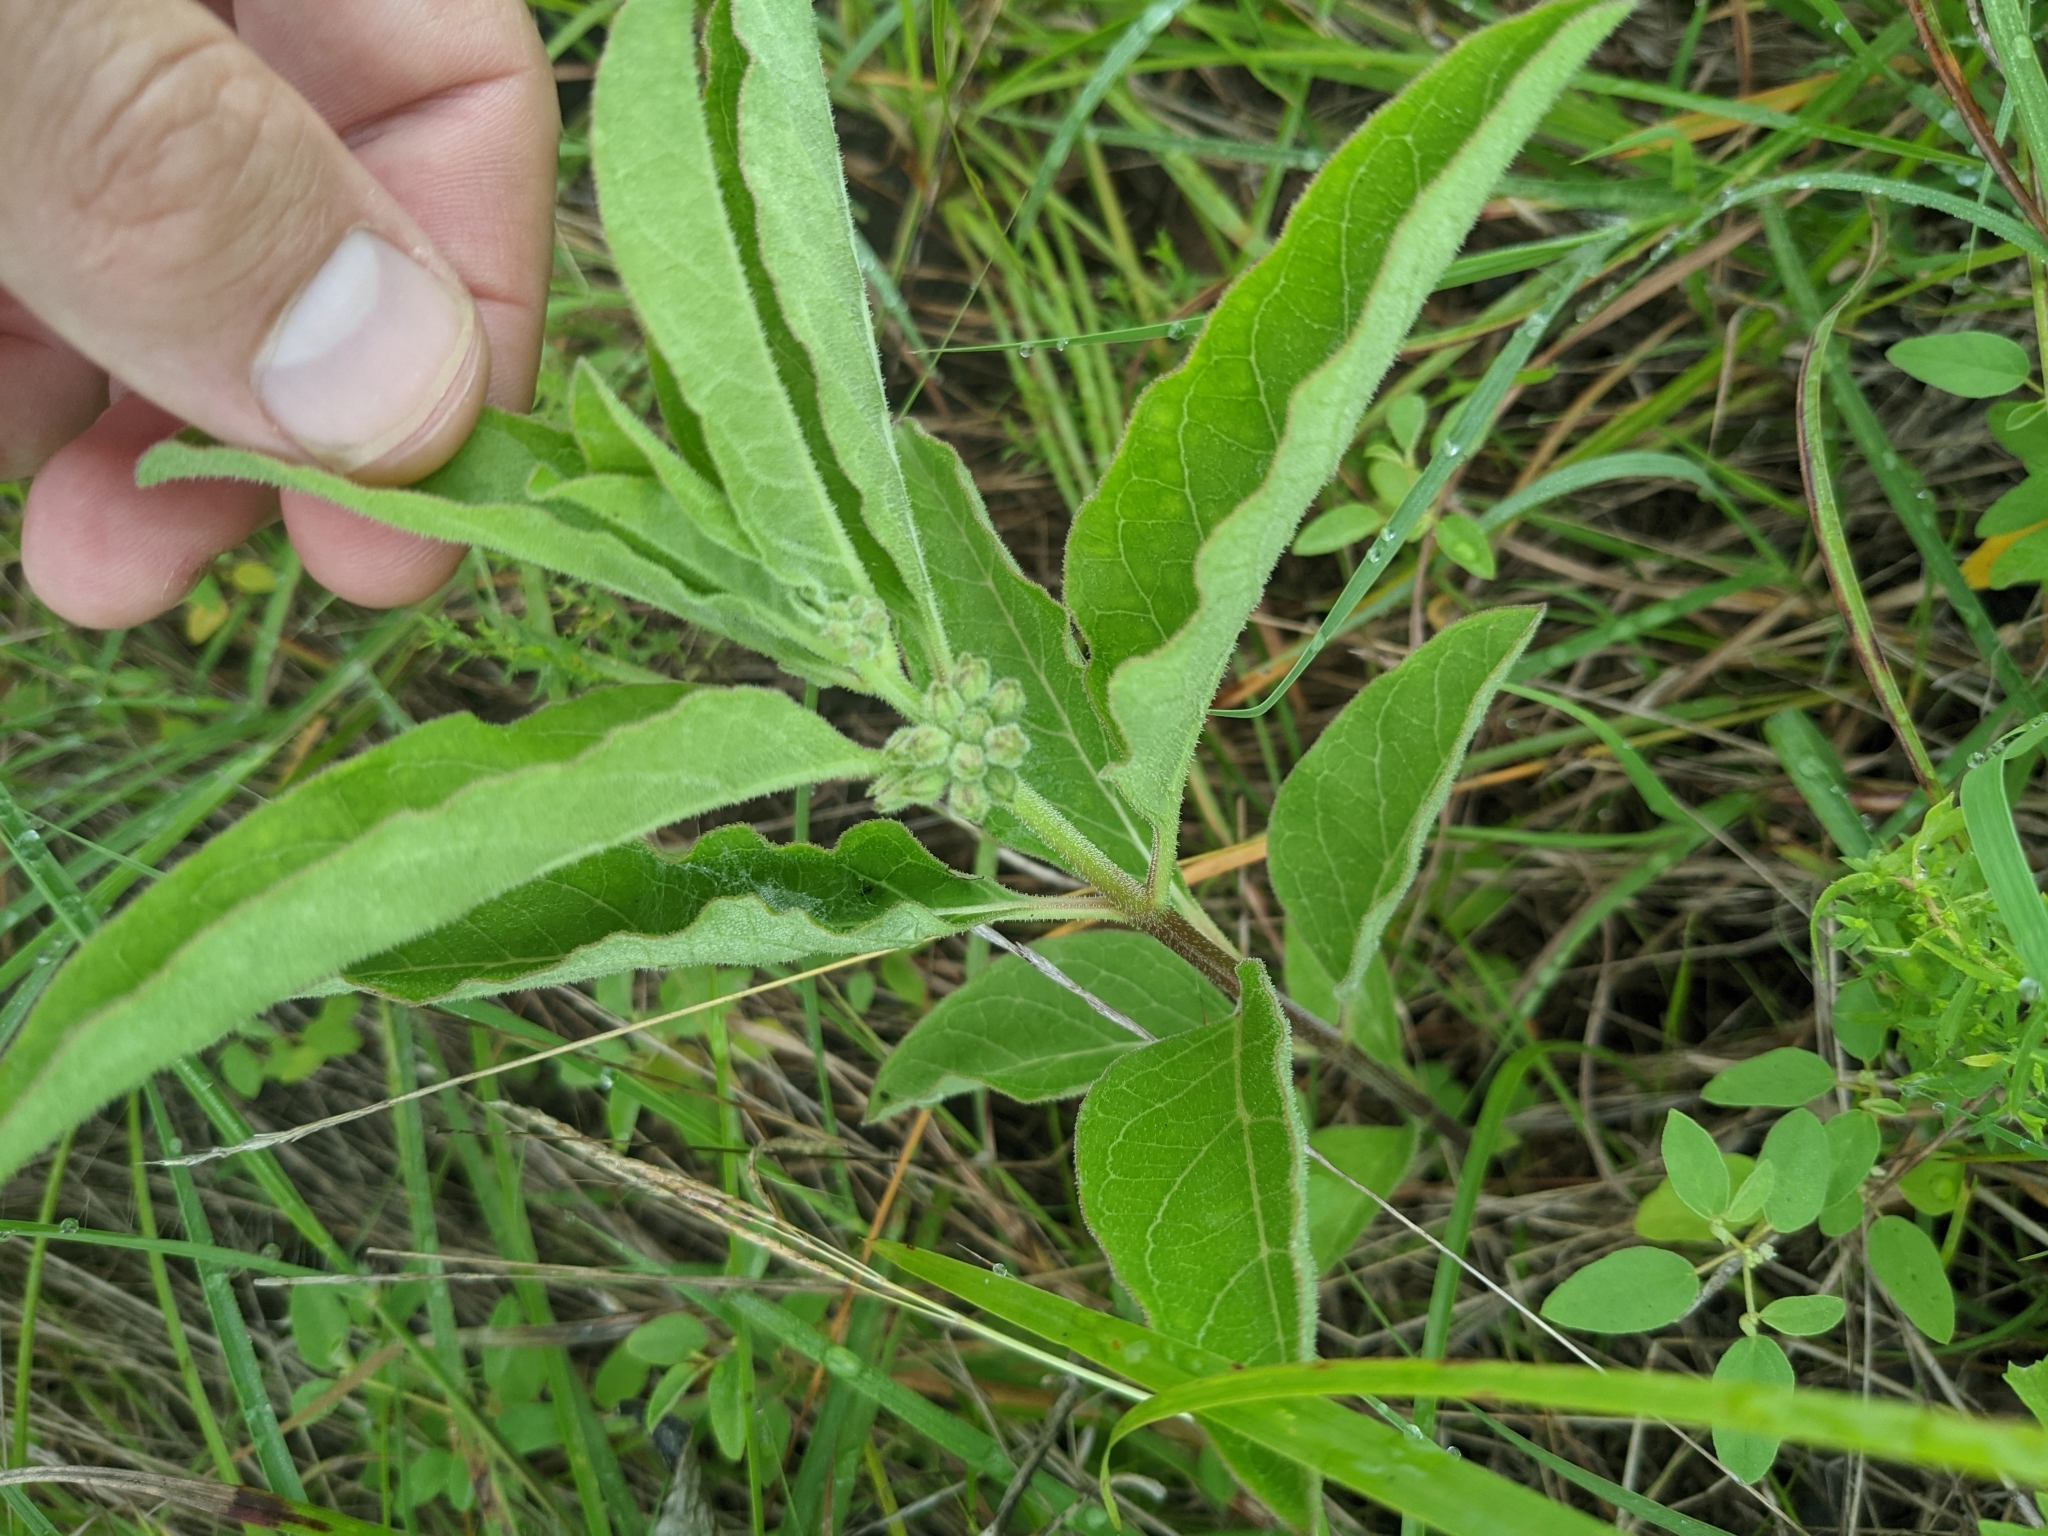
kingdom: Plantae
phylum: Tracheophyta
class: Magnoliopsida
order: Gentianales
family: Apocynaceae
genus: Asclepias
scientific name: Asclepias oenotheroides
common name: Zizotes milkweed
